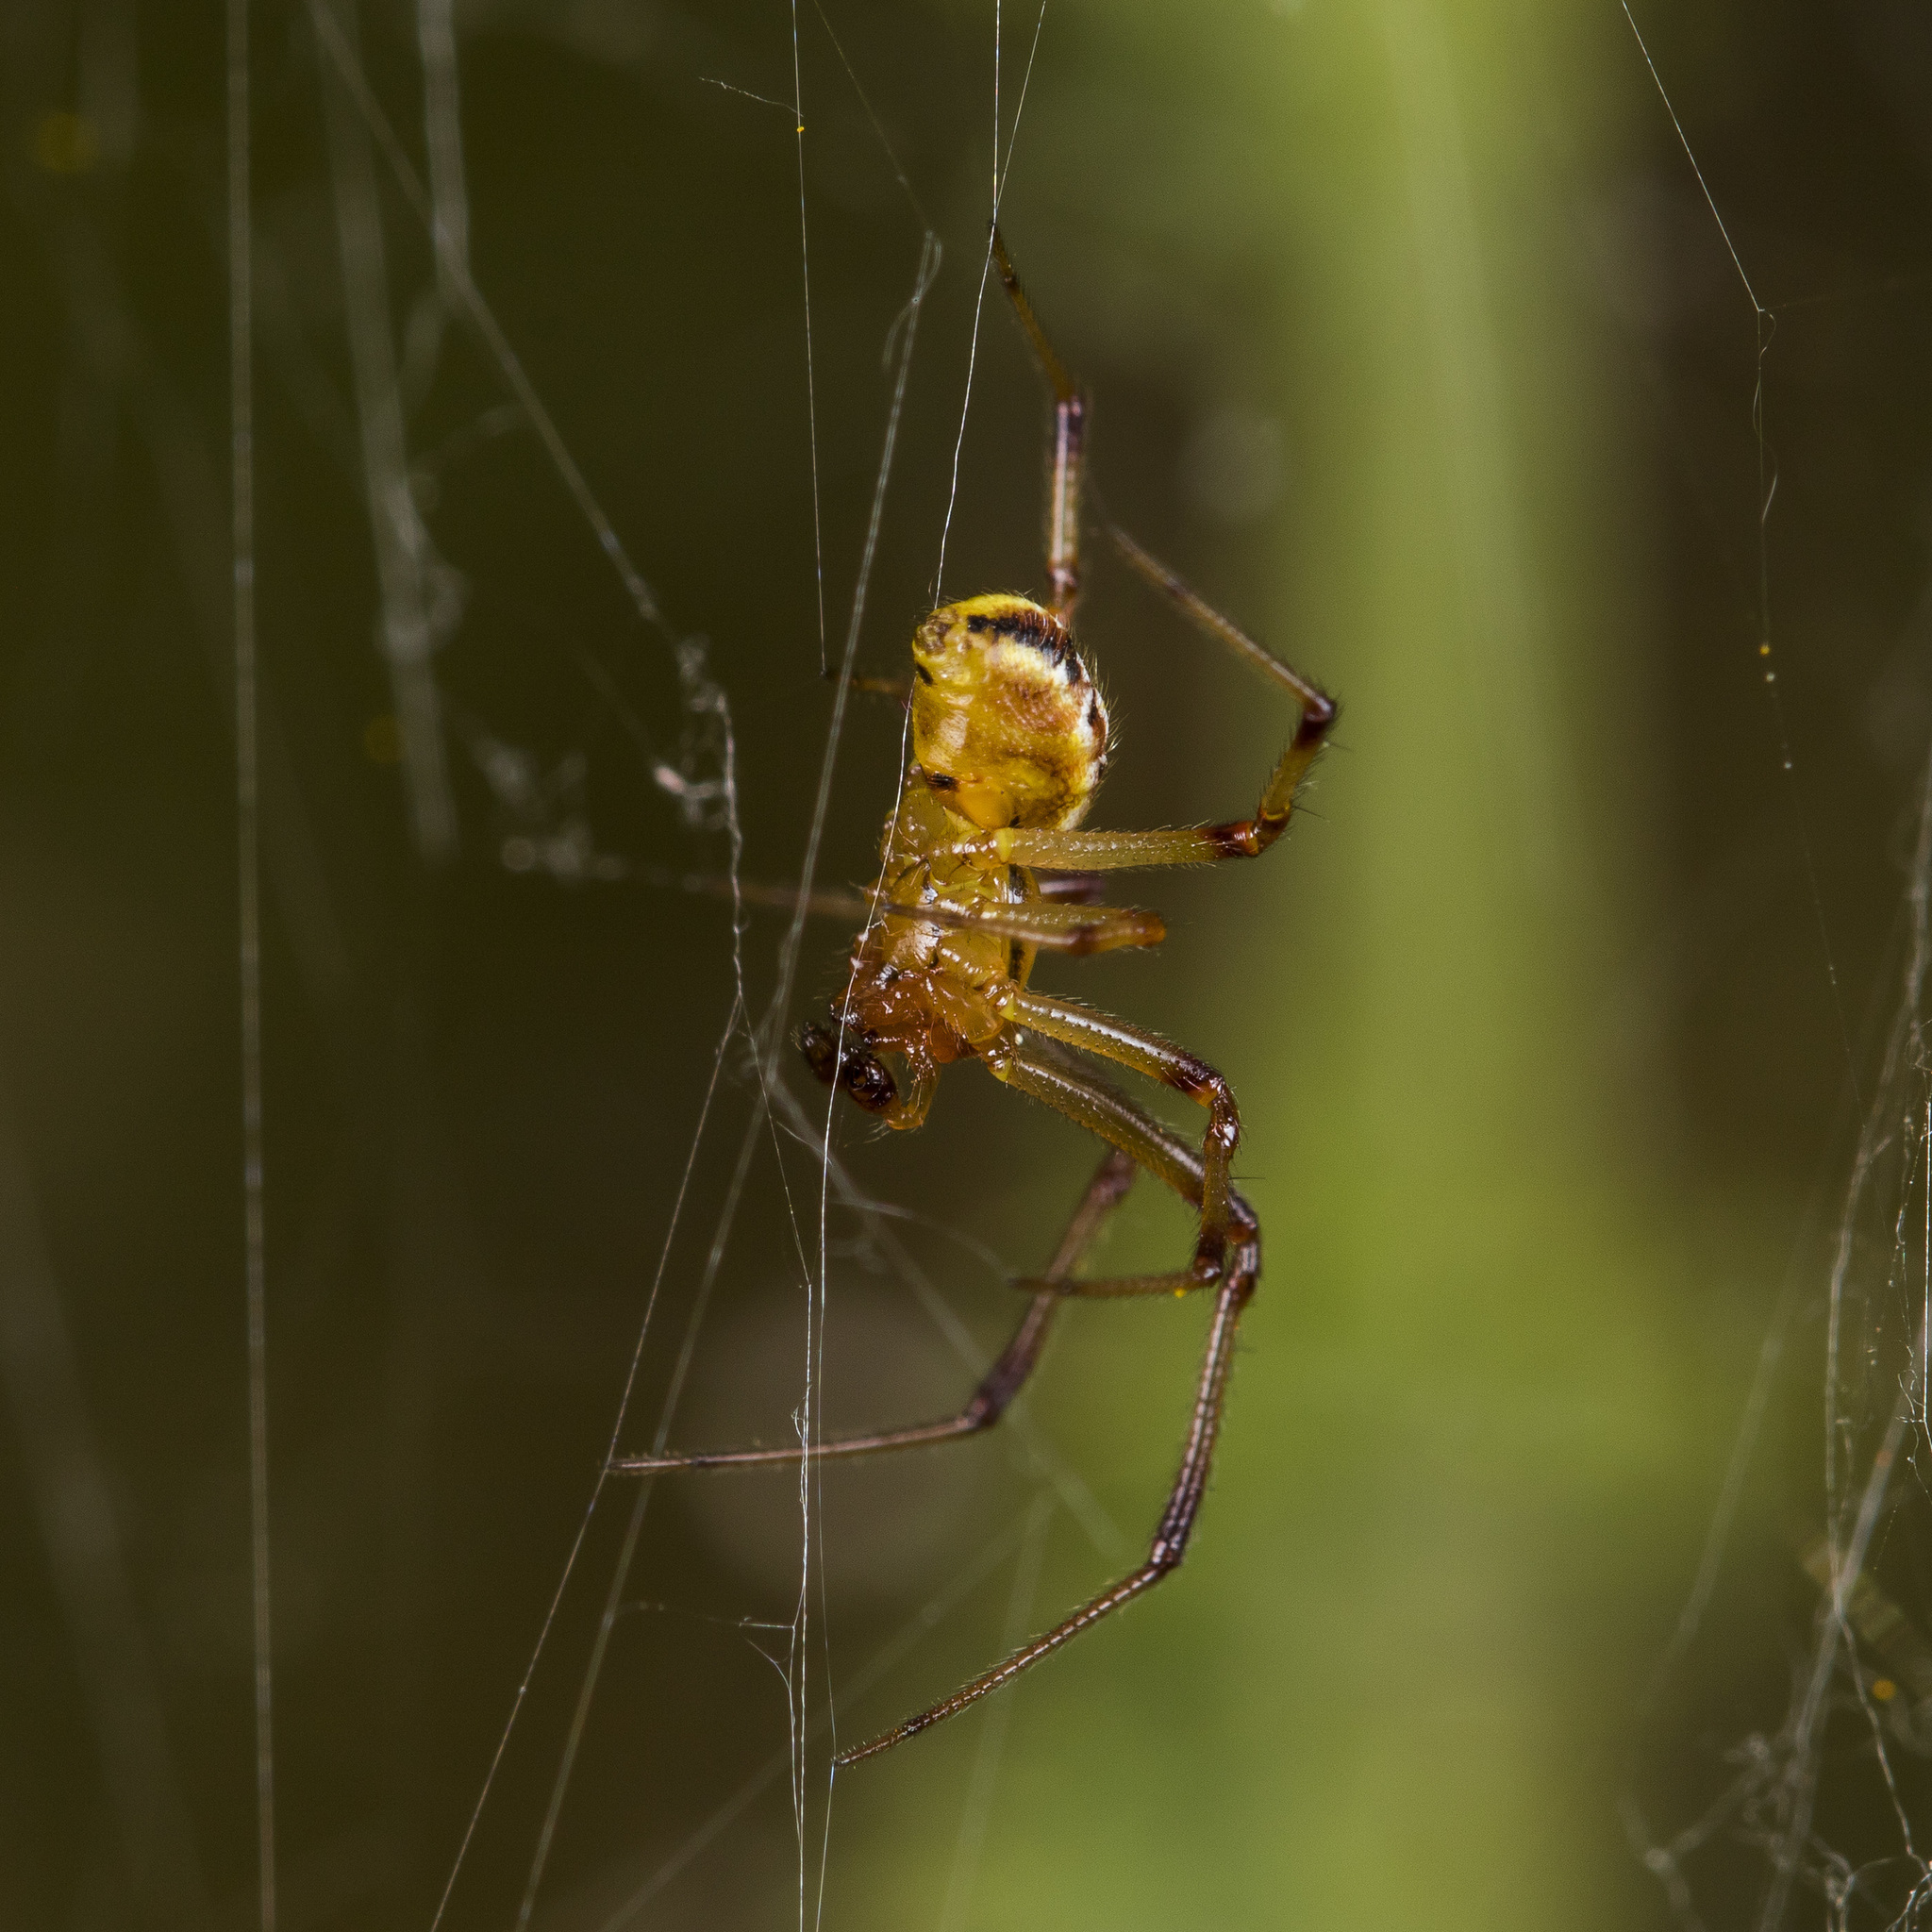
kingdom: Animalia
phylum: Arthropoda
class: Arachnida
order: Araneae
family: Theridiidae
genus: Phylloneta
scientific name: Phylloneta impressa
